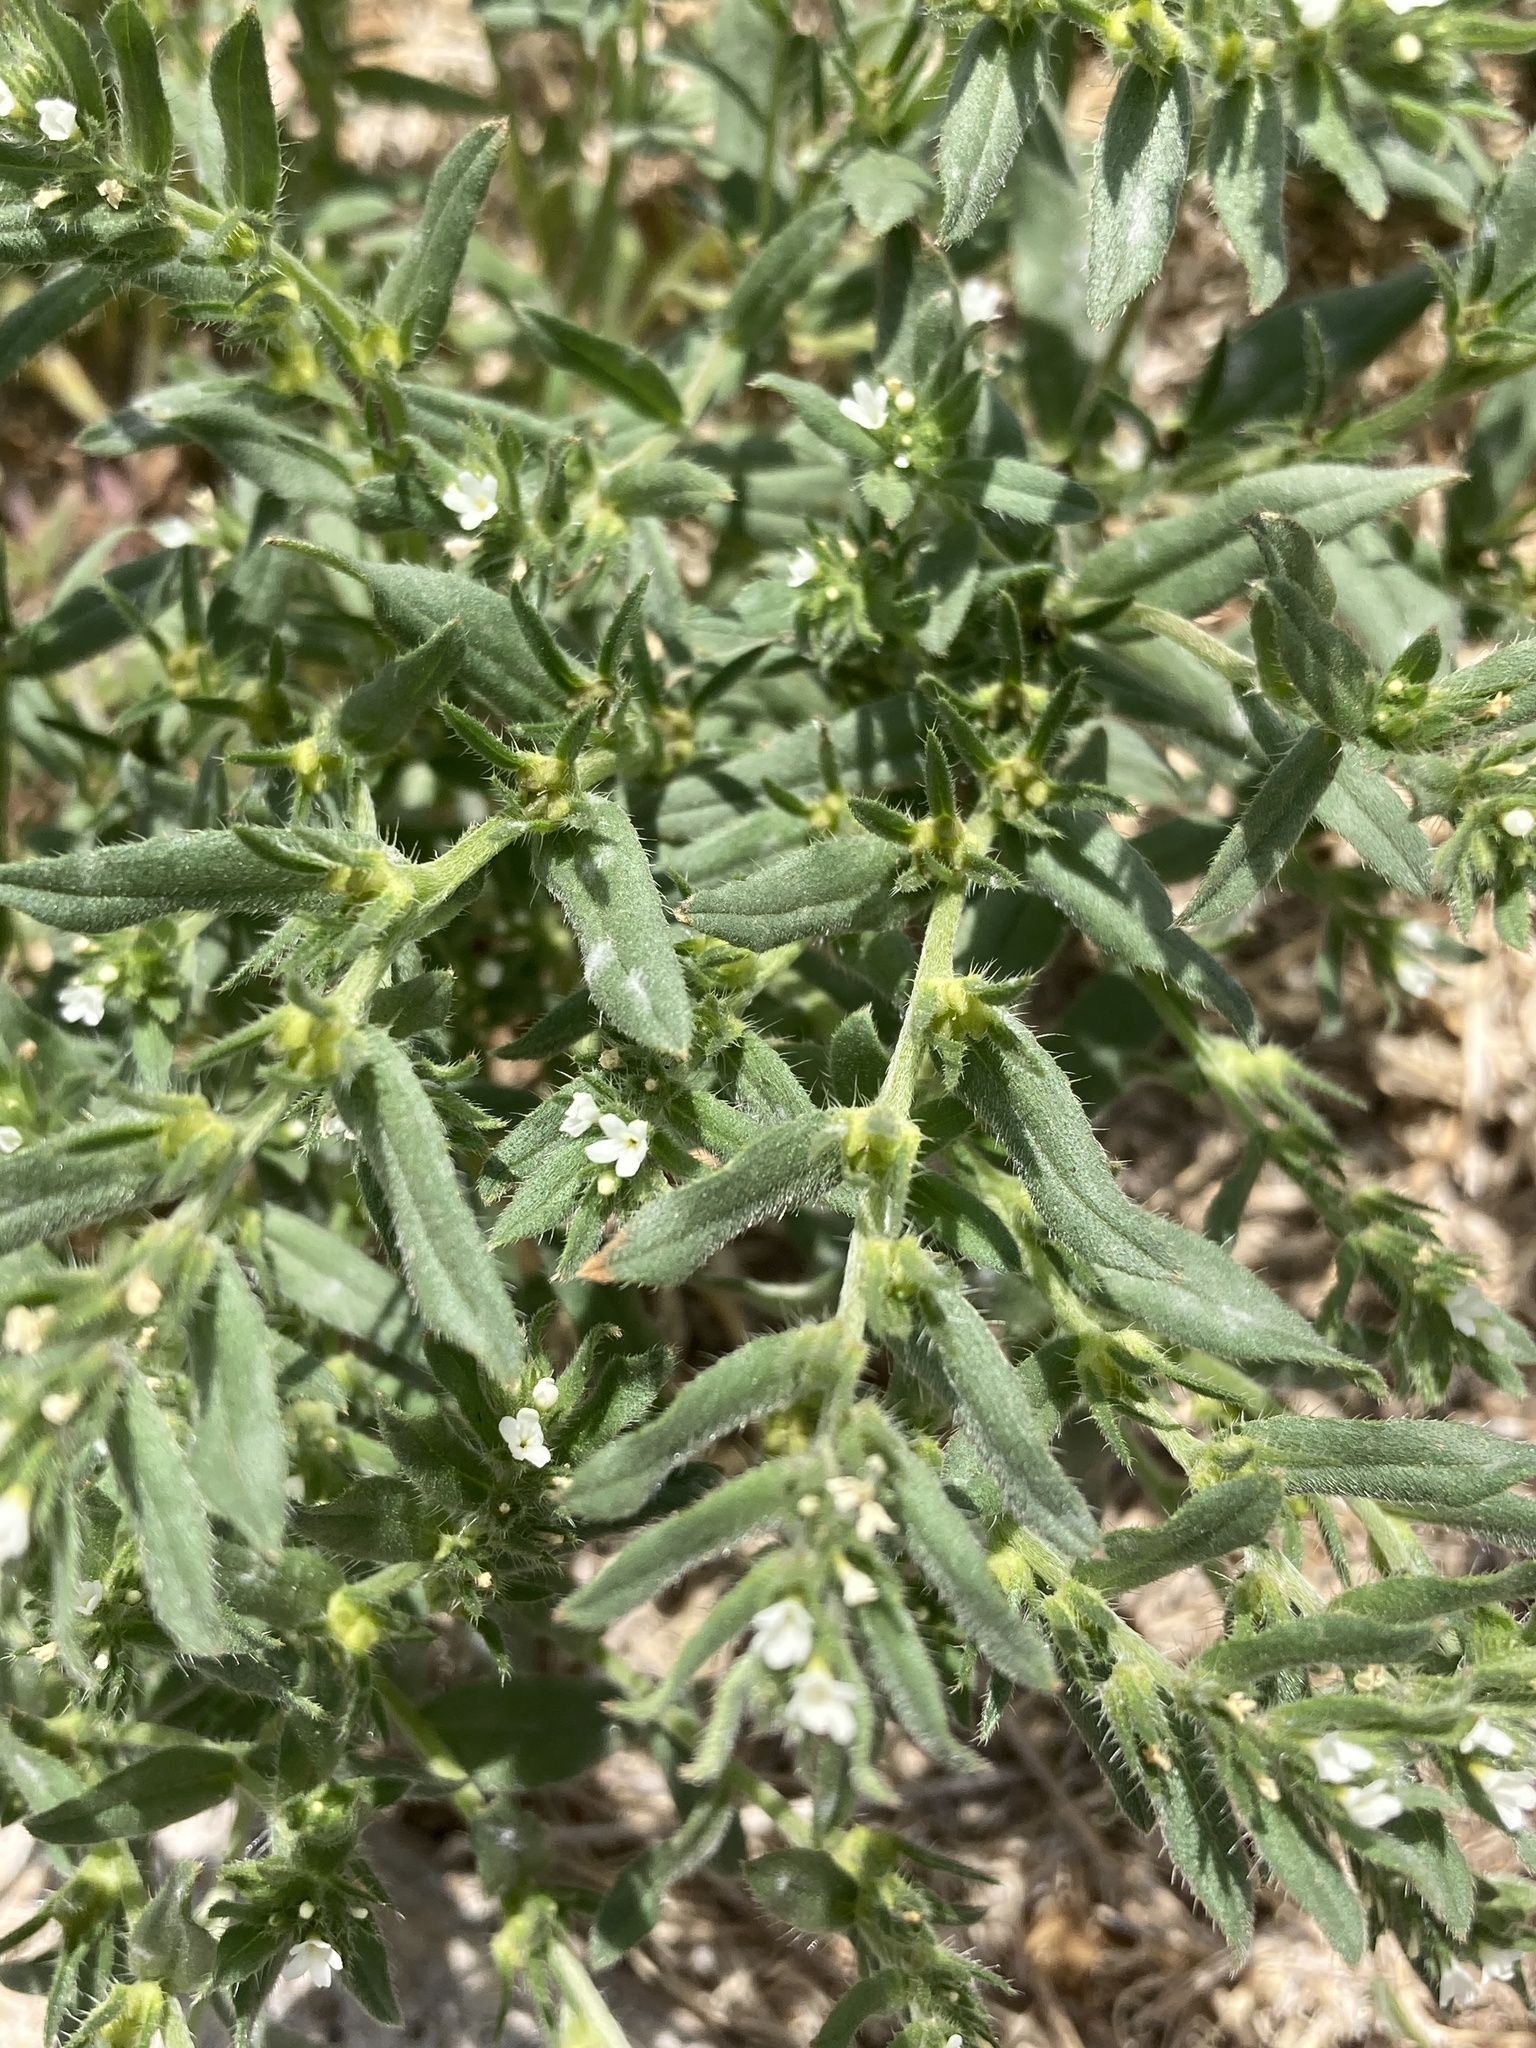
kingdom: Plantae
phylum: Tracheophyta
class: Magnoliopsida
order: Boraginales
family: Boraginaceae
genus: Buglossoides
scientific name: Buglossoides arvensis
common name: Corn gromwell
